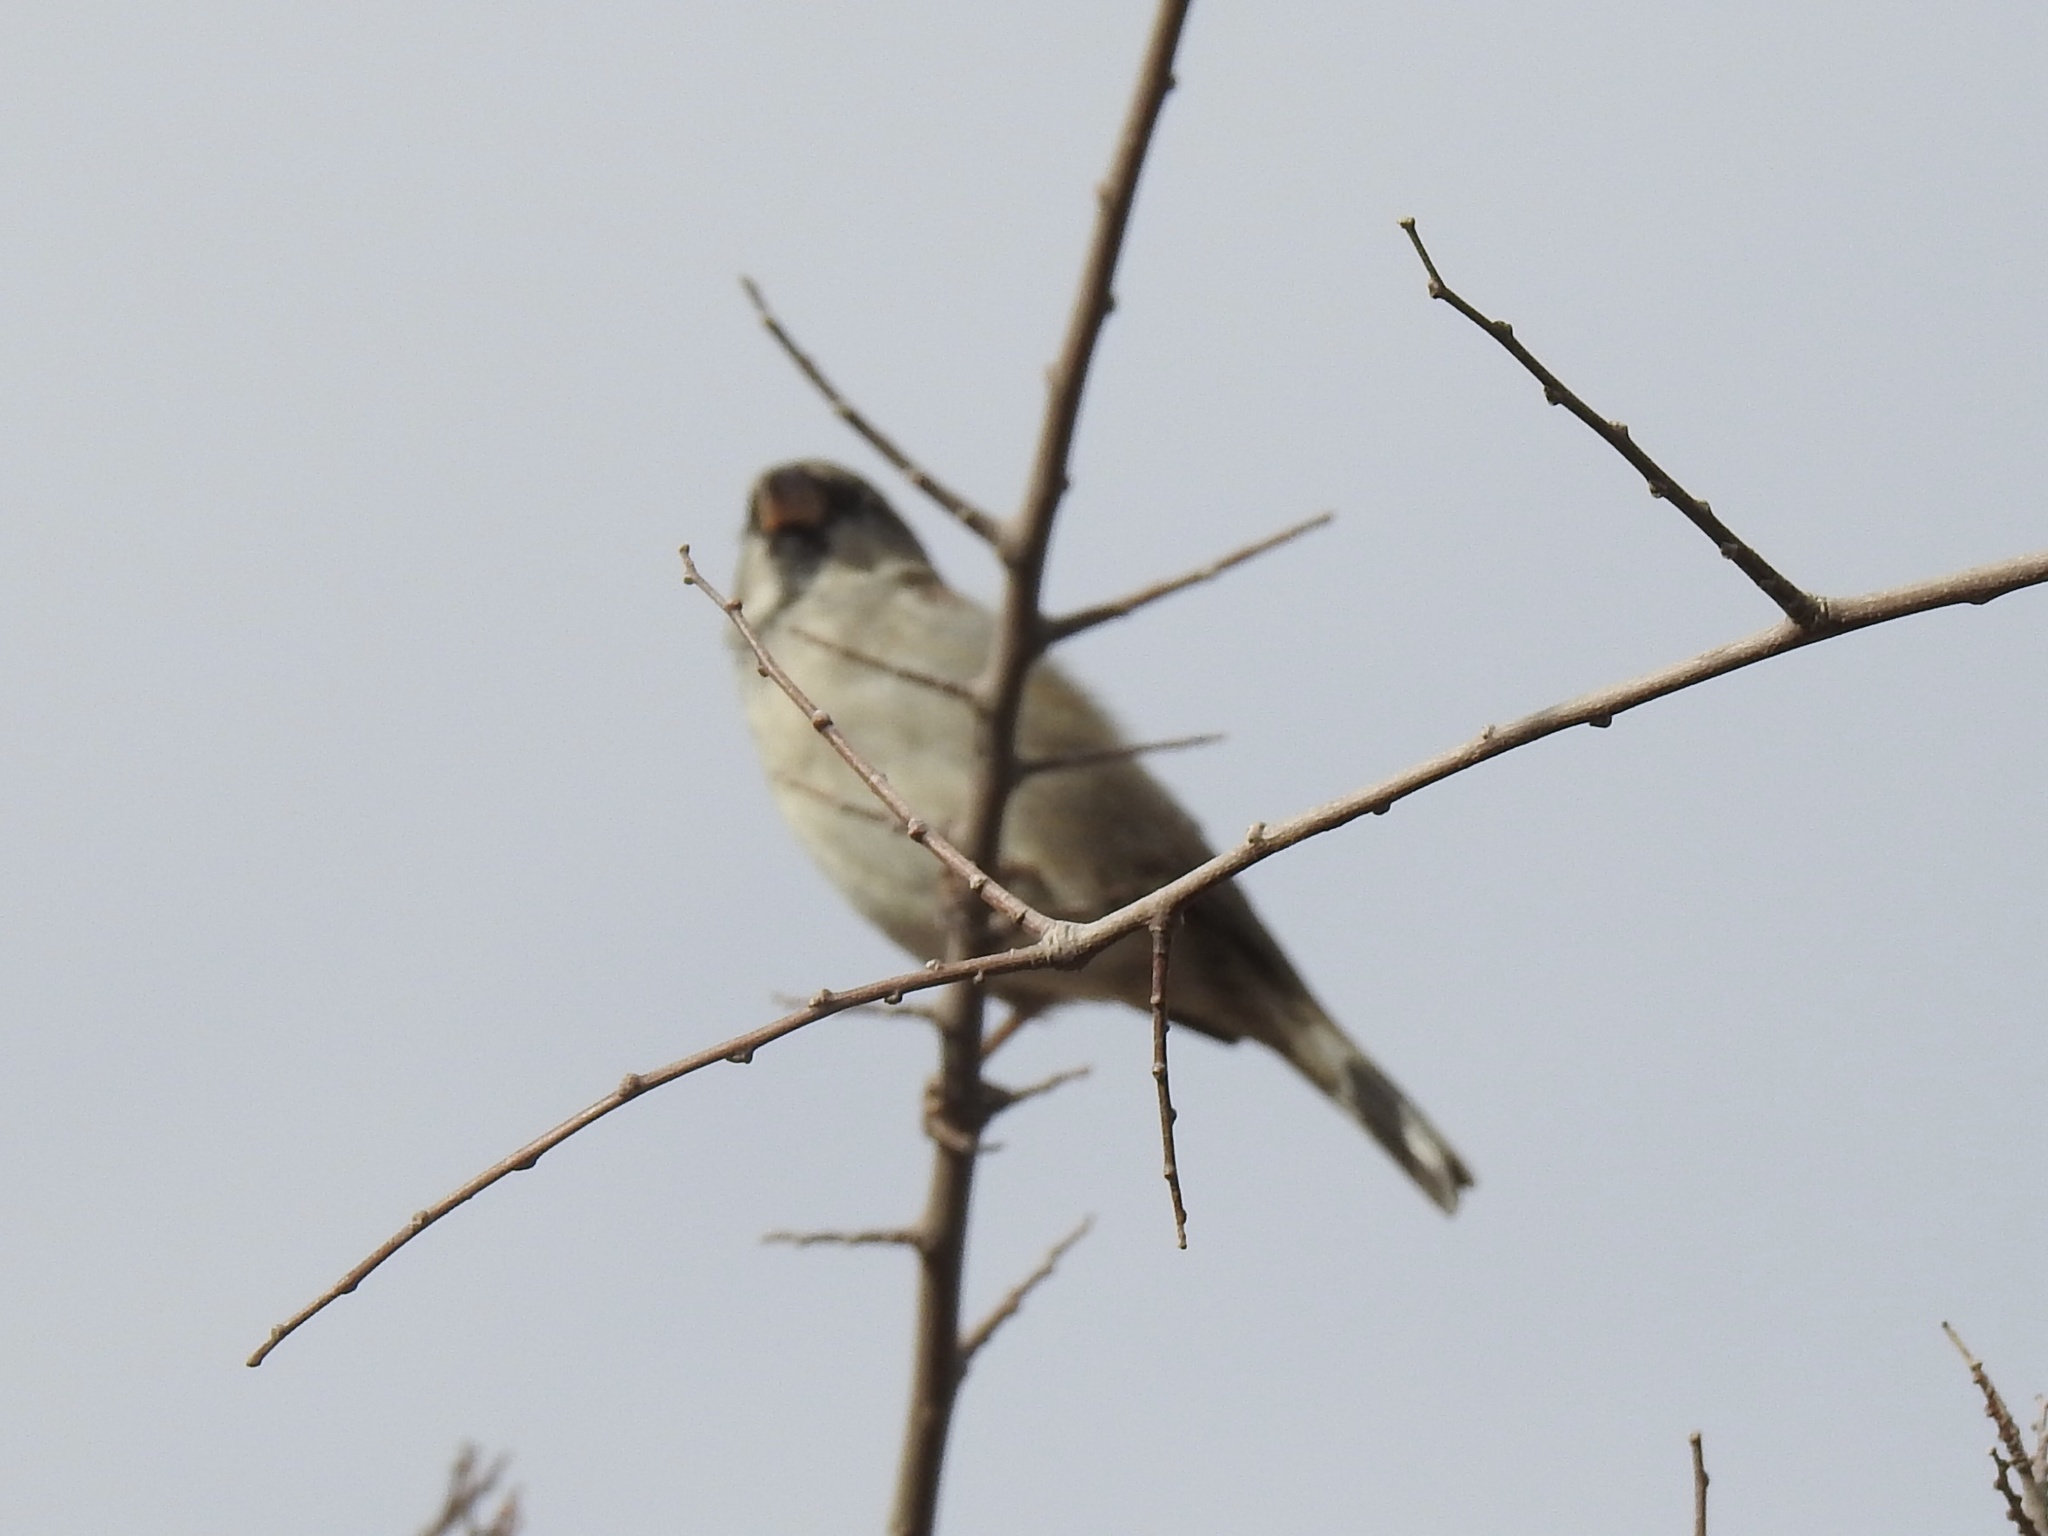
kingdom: Animalia
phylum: Chordata
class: Aves
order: Passeriformes
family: Passeridae
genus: Passer
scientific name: Passer domesticus
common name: House sparrow
